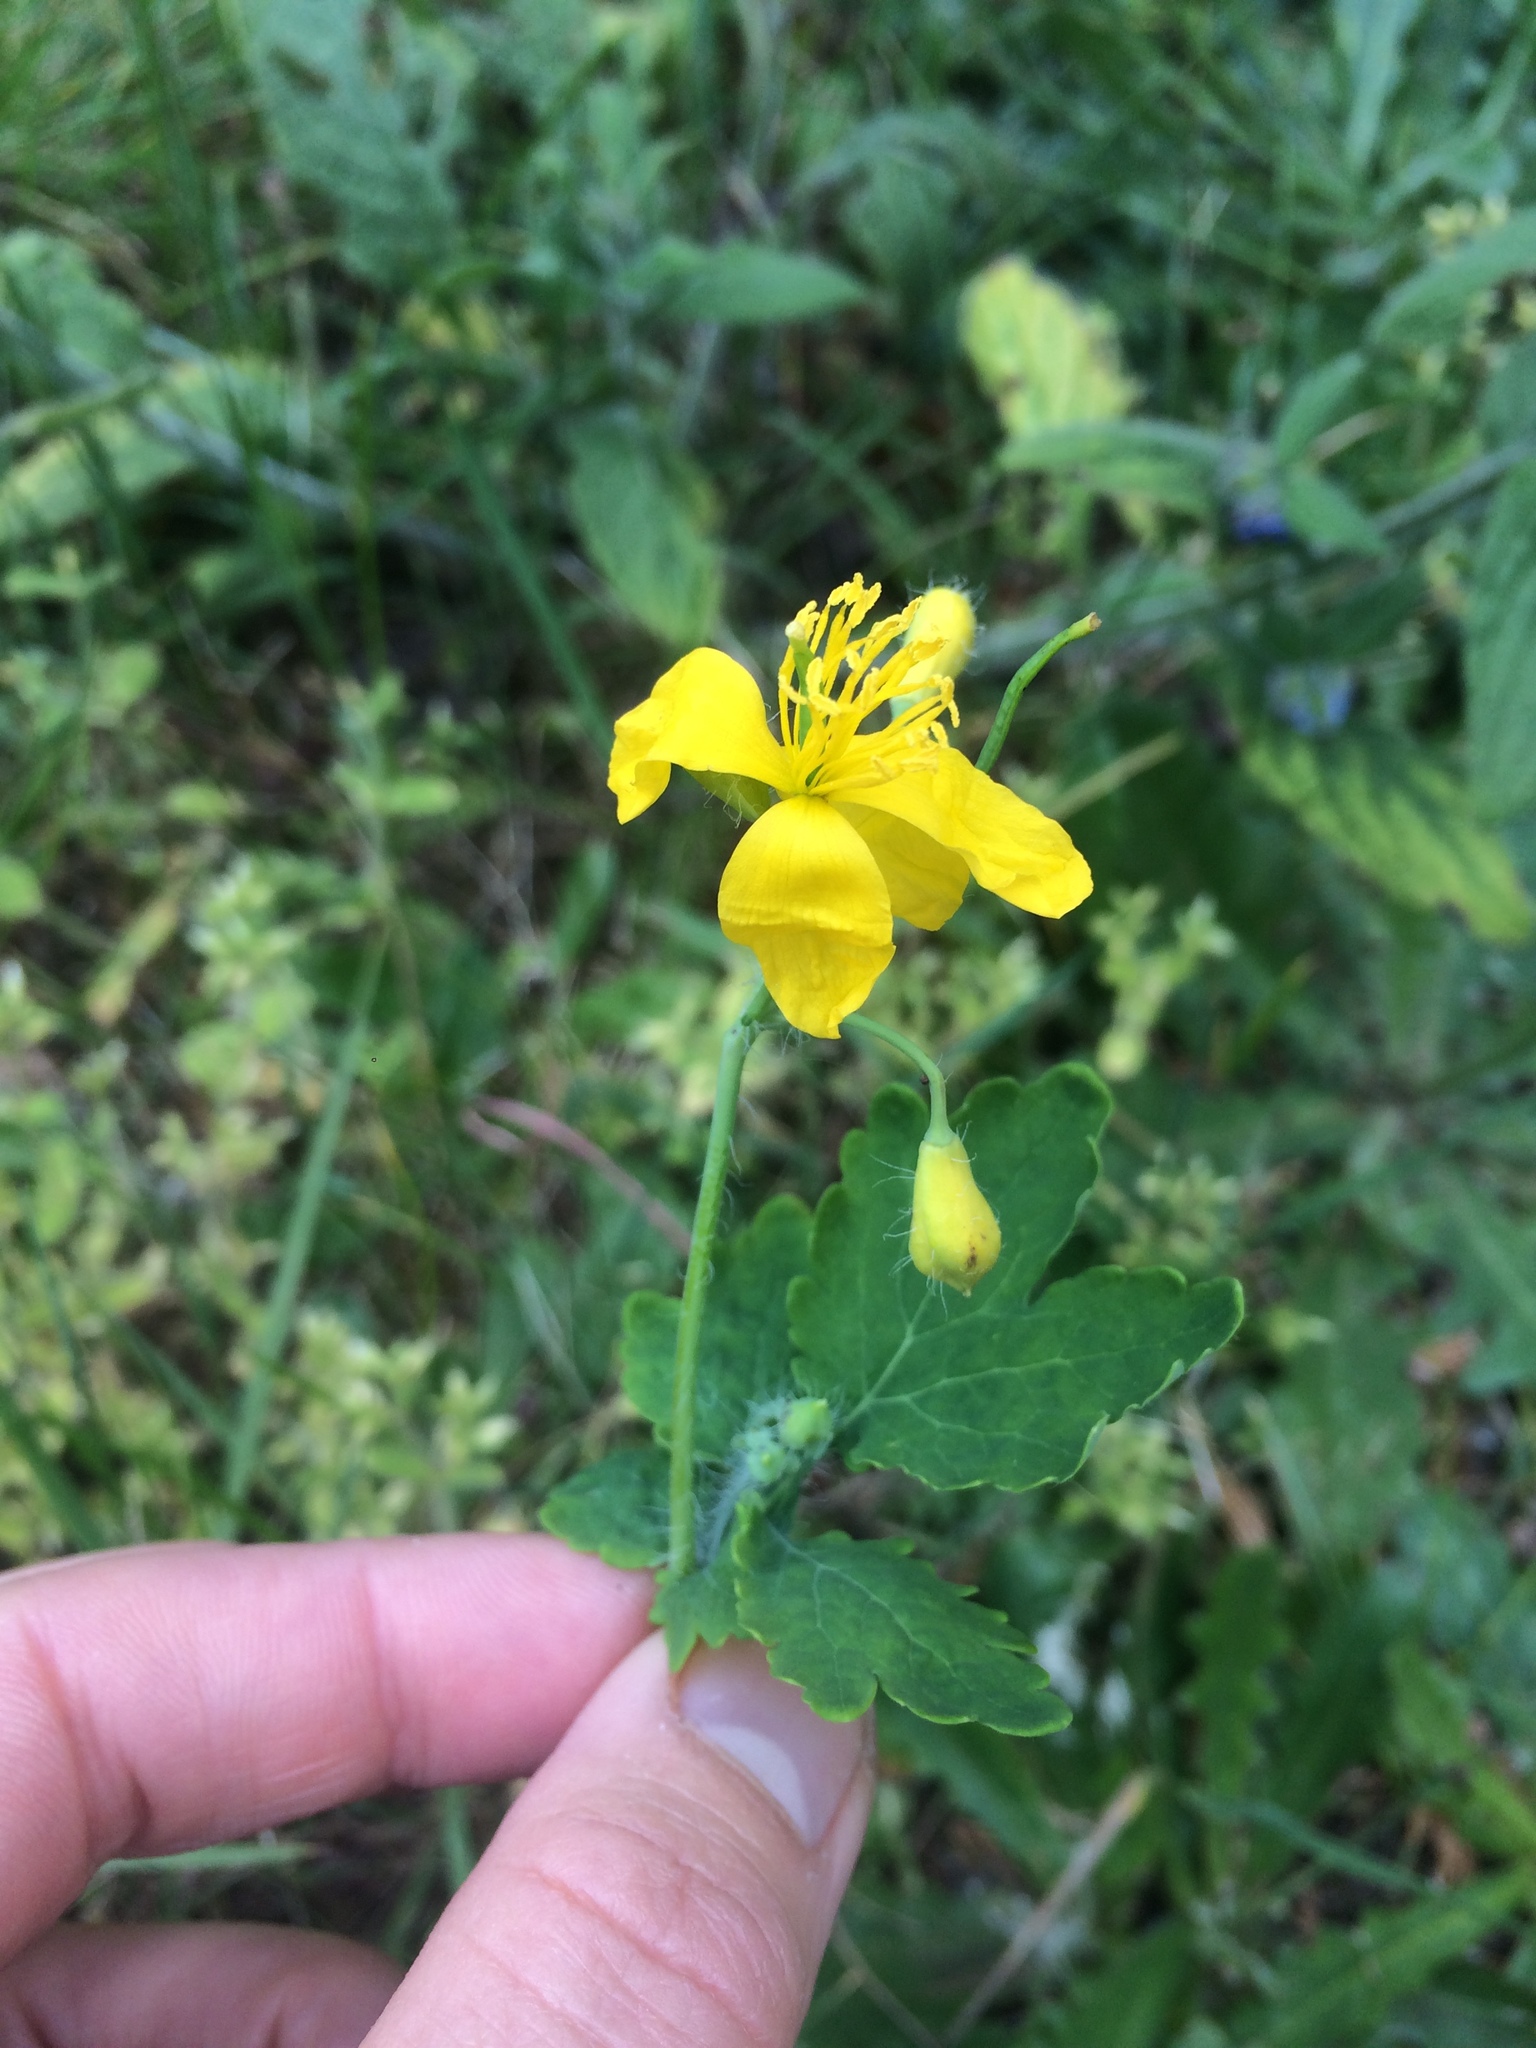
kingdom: Plantae
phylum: Tracheophyta
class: Magnoliopsida
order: Ranunculales
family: Papaveraceae
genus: Chelidonium
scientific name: Chelidonium majus
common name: Greater celandine
